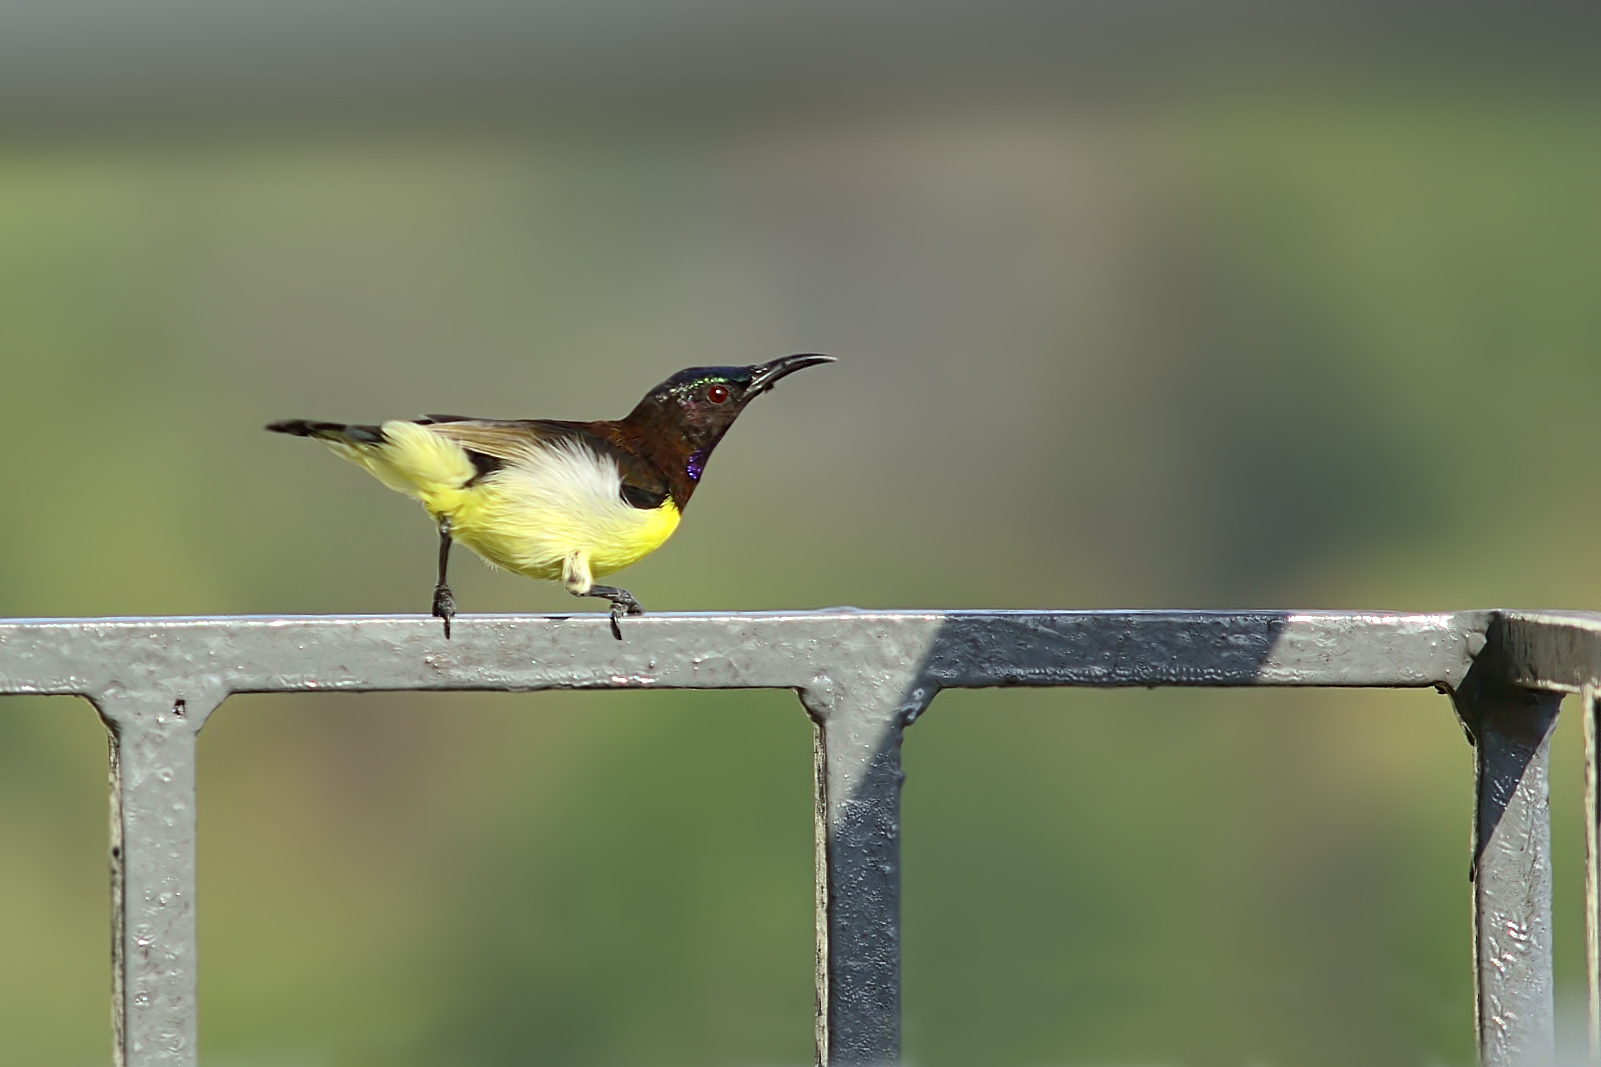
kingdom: Animalia
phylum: Chordata
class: Aves
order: Passeriformes
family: Nectariniidae
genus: Leptocoma
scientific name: Leptocoma zeylonica
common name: Purple-rumped sunbird
